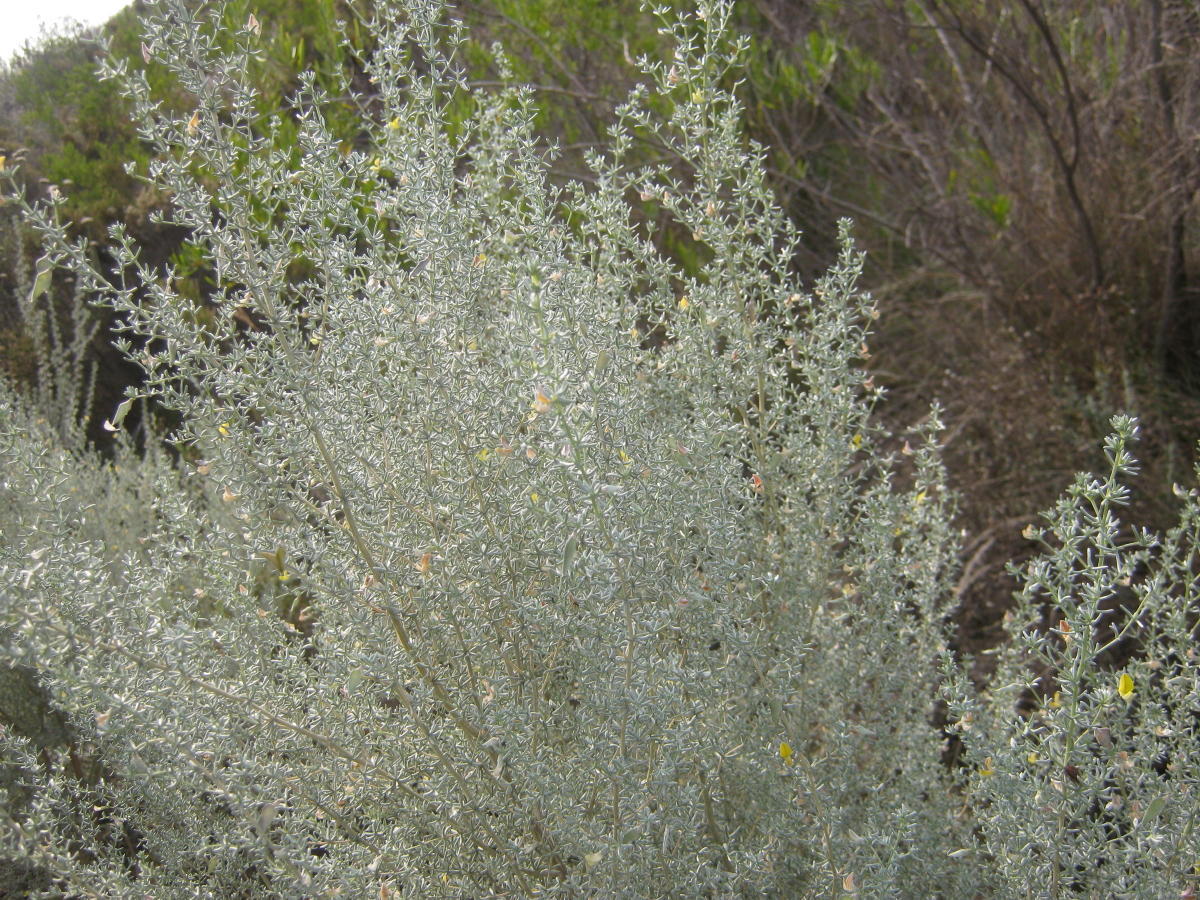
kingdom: Plantae
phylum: Tracheophyta
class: Magnoliopsida
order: Fabales
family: Fabaceae
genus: Aspalathus
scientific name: Aspalathus pedunculata
